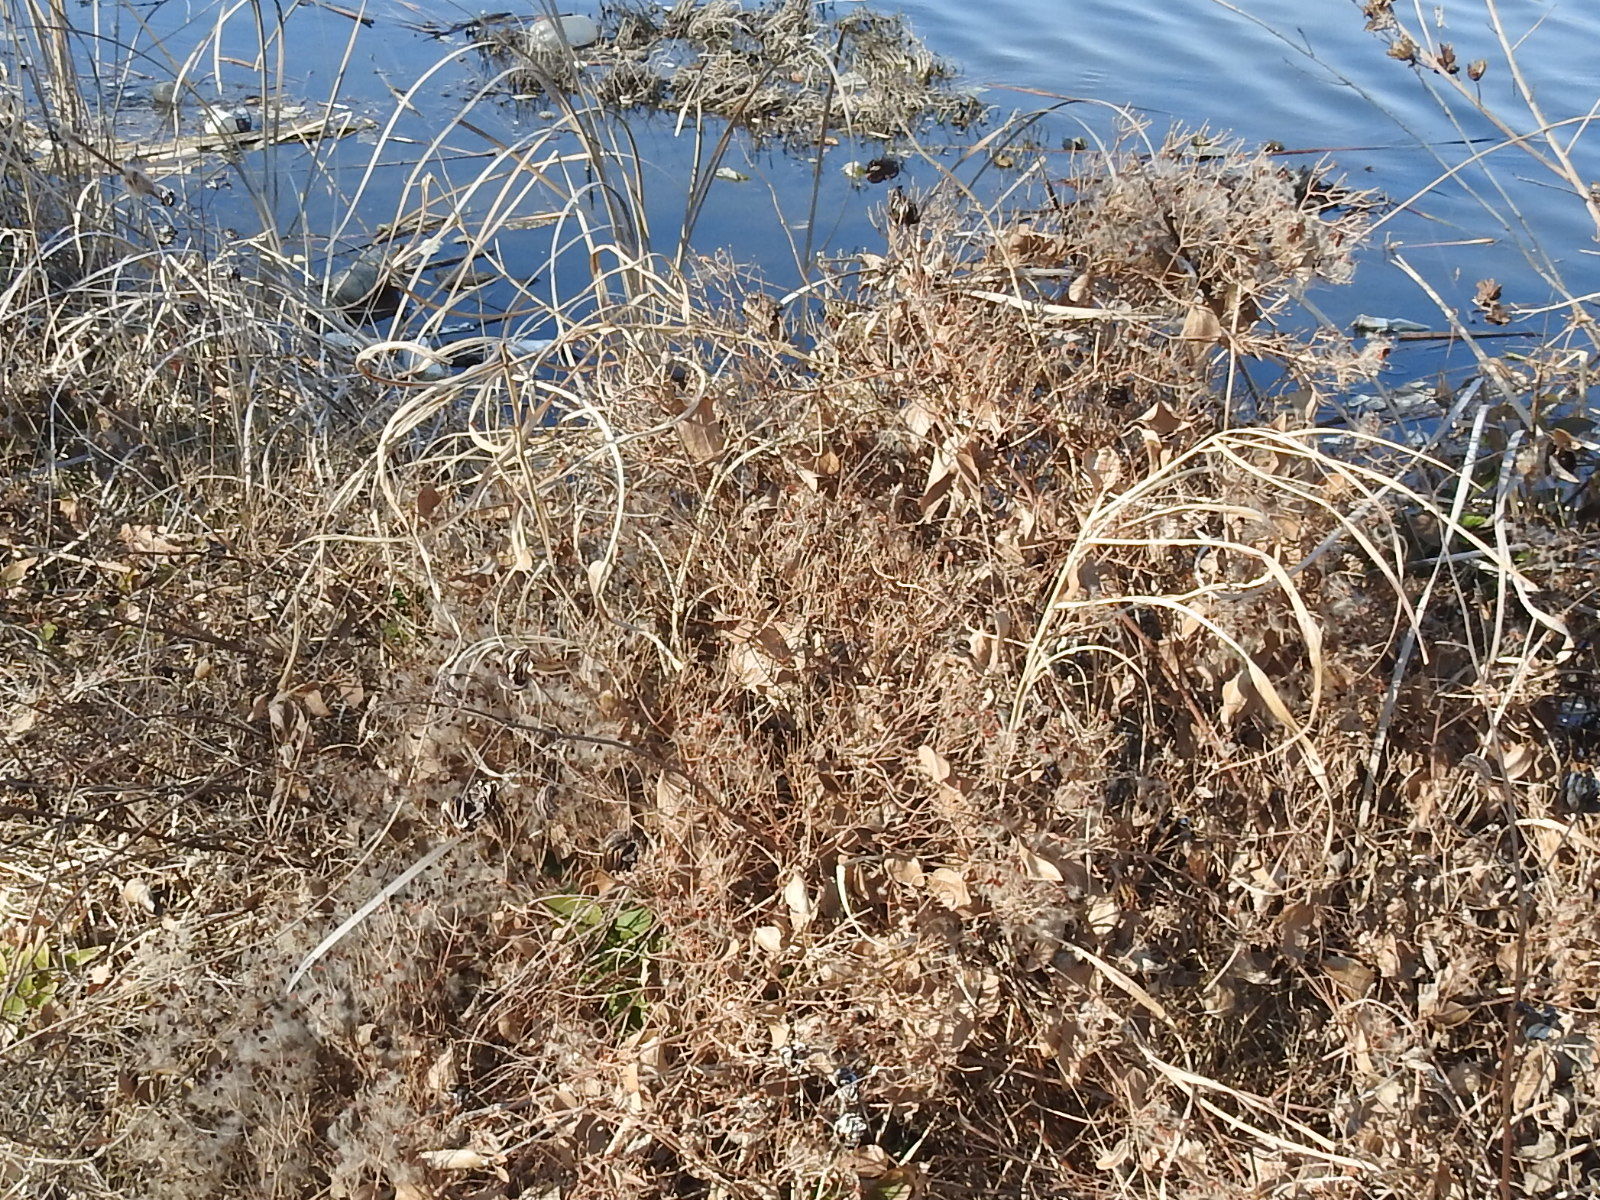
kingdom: Plantae
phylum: Tracheophyta
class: Magnoliopsida
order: Fabales
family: Fabaceae
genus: Desmanthus
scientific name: Desmanthus illinoensis
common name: Illinois bundle-flower
